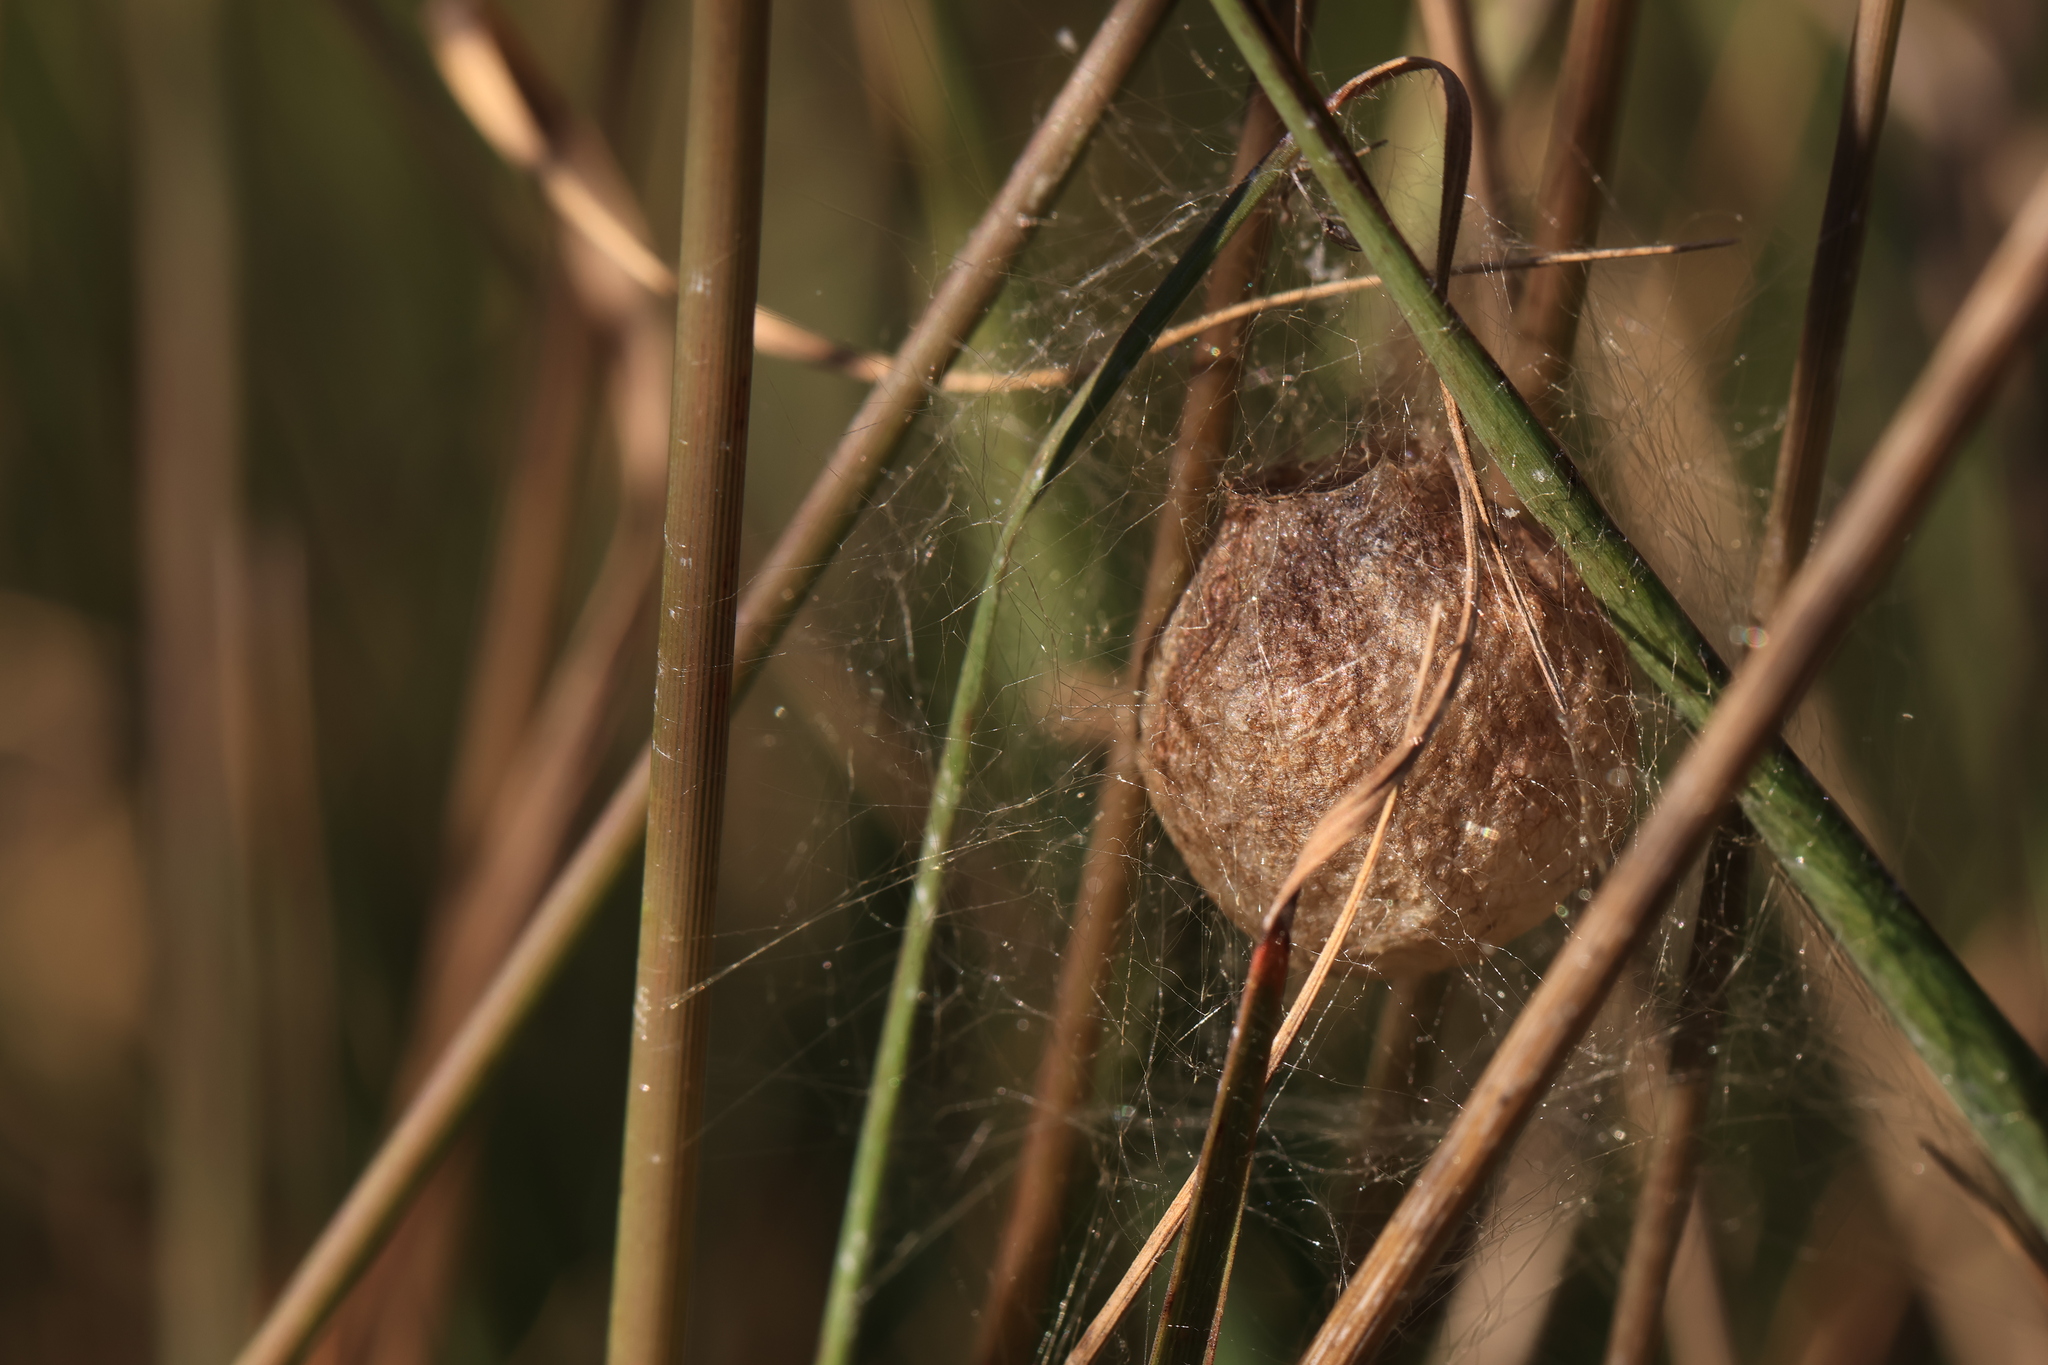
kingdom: Animalia
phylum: Arthropoda
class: Arachnida
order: Araneae
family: Araneidae
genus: Argiope
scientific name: Argiope bruennichi
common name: Wasp spider
